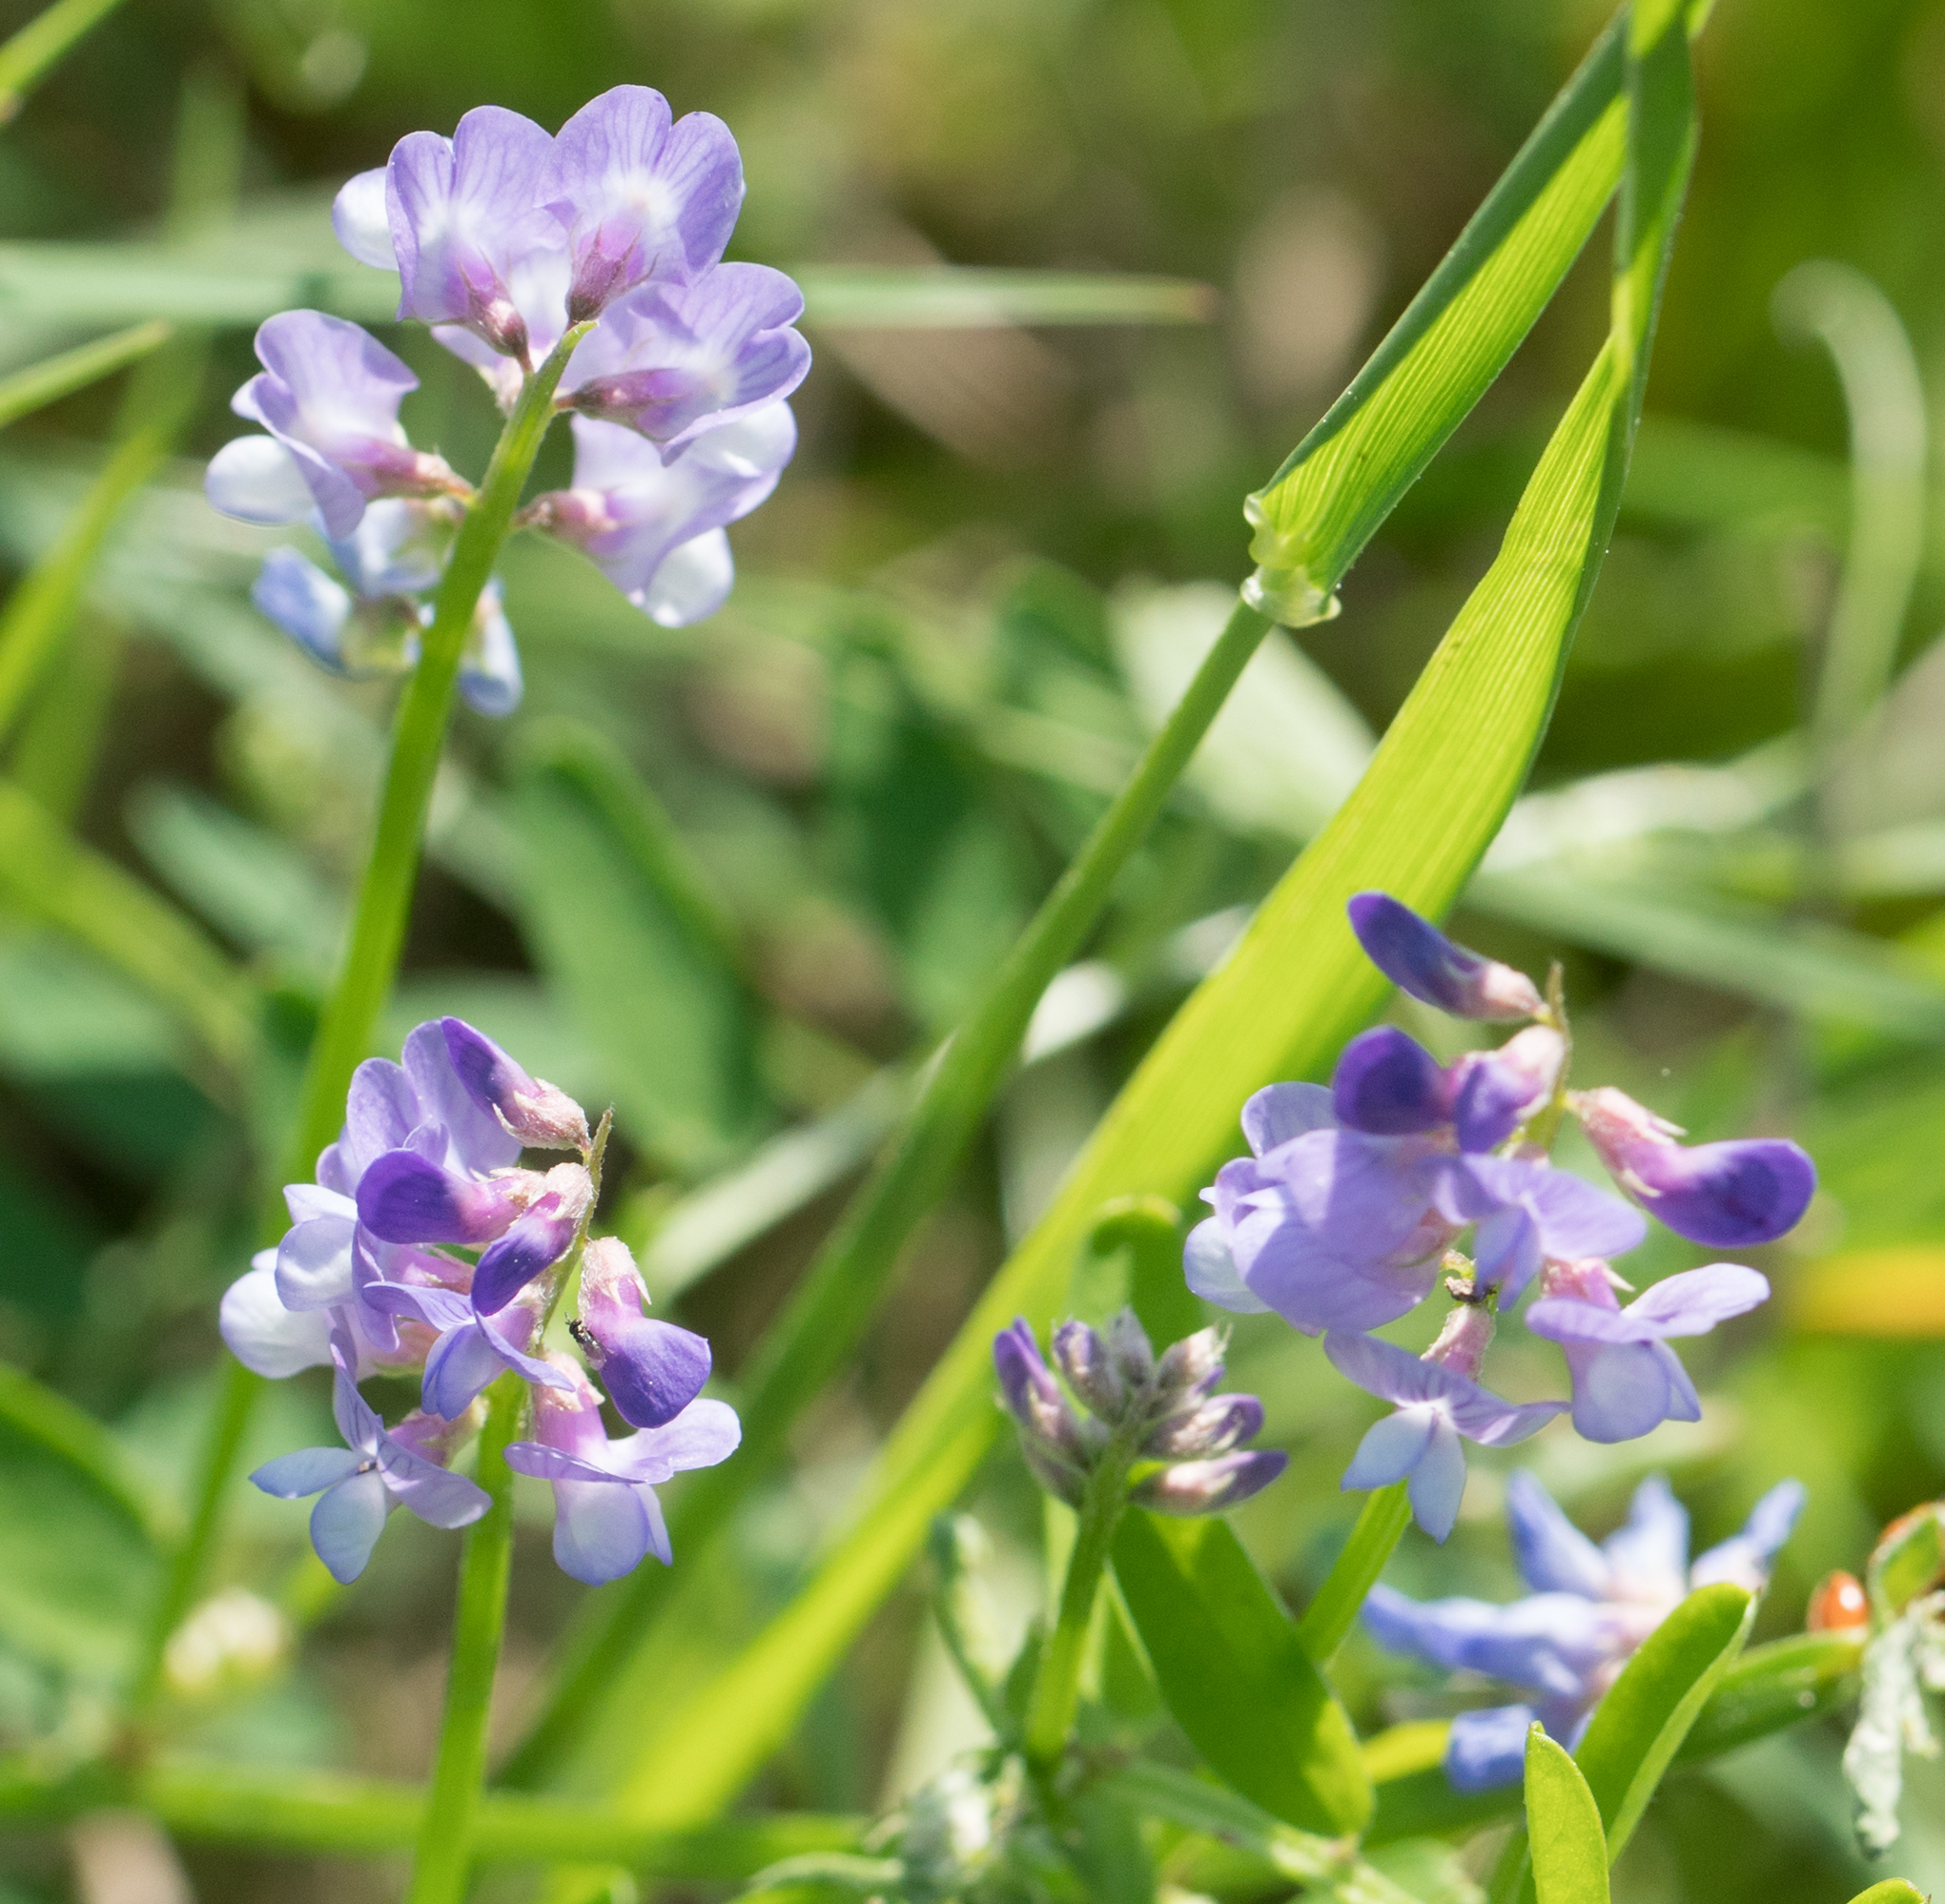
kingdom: Plantae
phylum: Tracheophyta
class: Magnoliopsida
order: Fabales
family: Fabaceae
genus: Vicia
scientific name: Vicia ludoviciana
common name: Louisiana vetch
